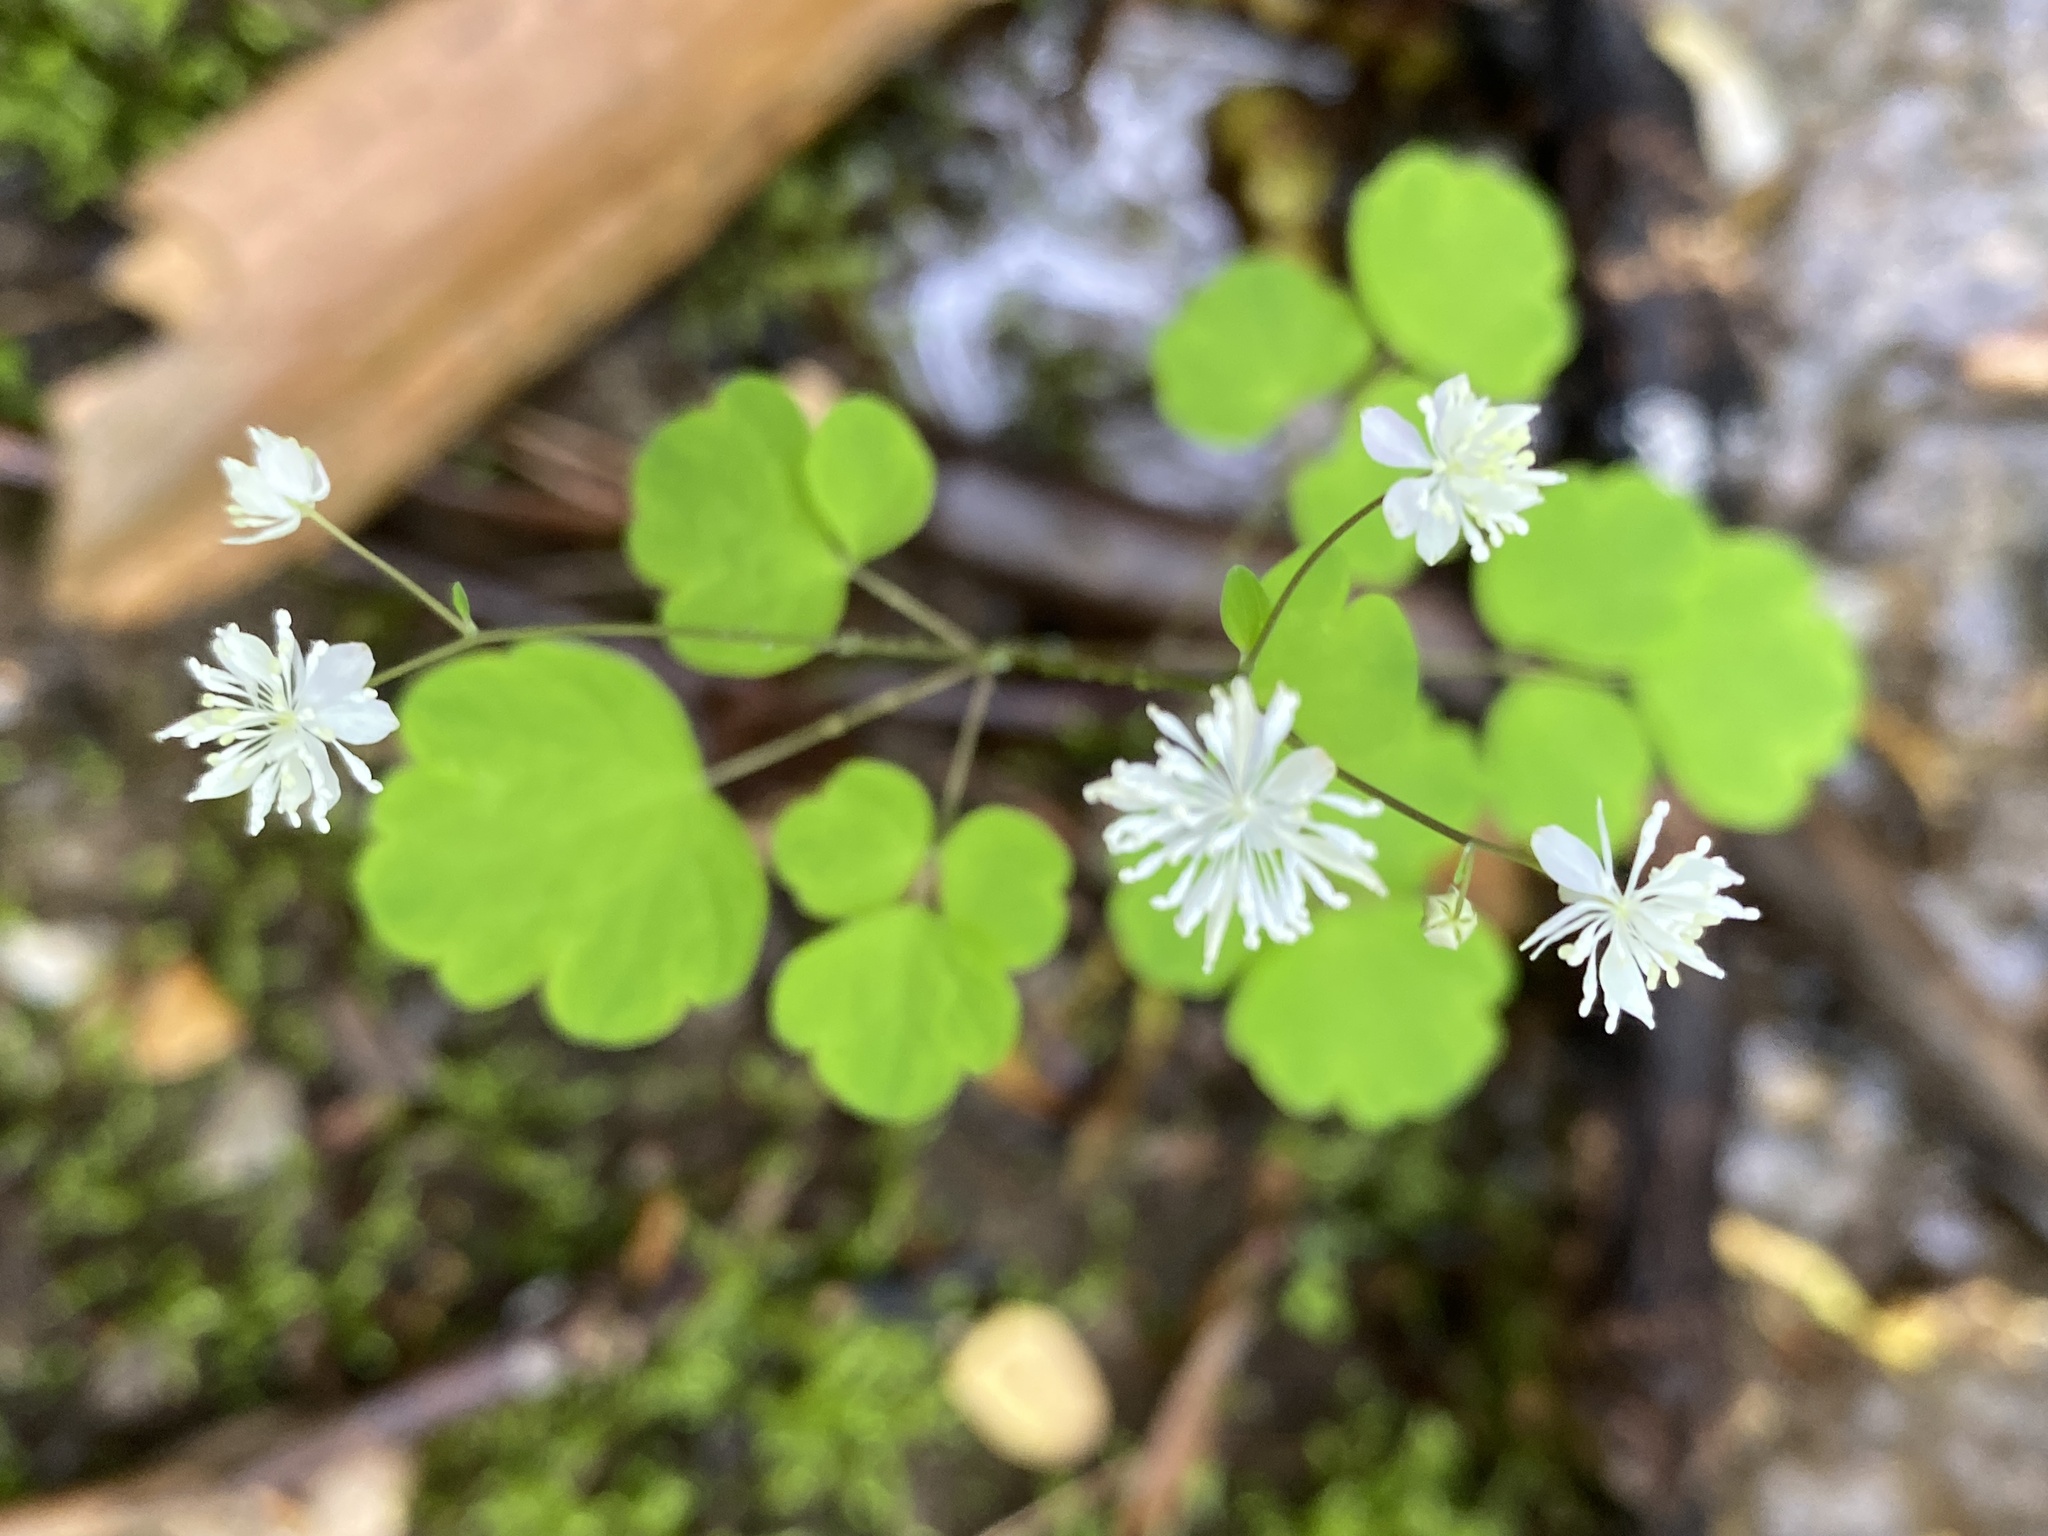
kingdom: Plantae
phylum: Tracheophyta
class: Magnoliopsida
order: Ranunculales
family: Ranunculaceae
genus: Thalictrum
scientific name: Thalictrum clavatum
